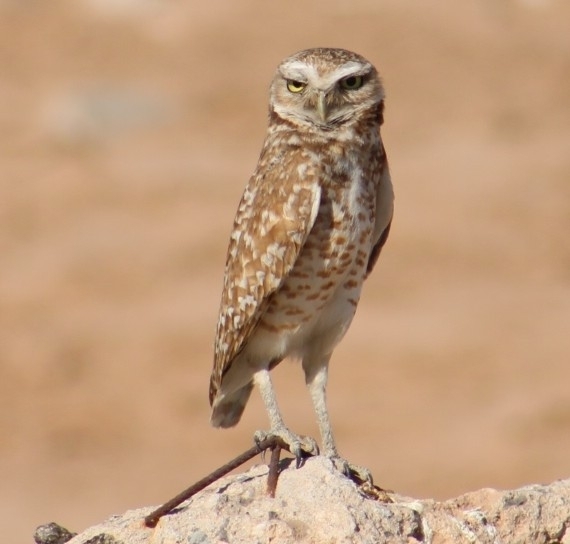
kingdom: Animalia
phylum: Chordata
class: Aves
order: Strigiformes
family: Strigidae
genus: Athene
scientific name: Athene cunicularia
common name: Burrowing owl
